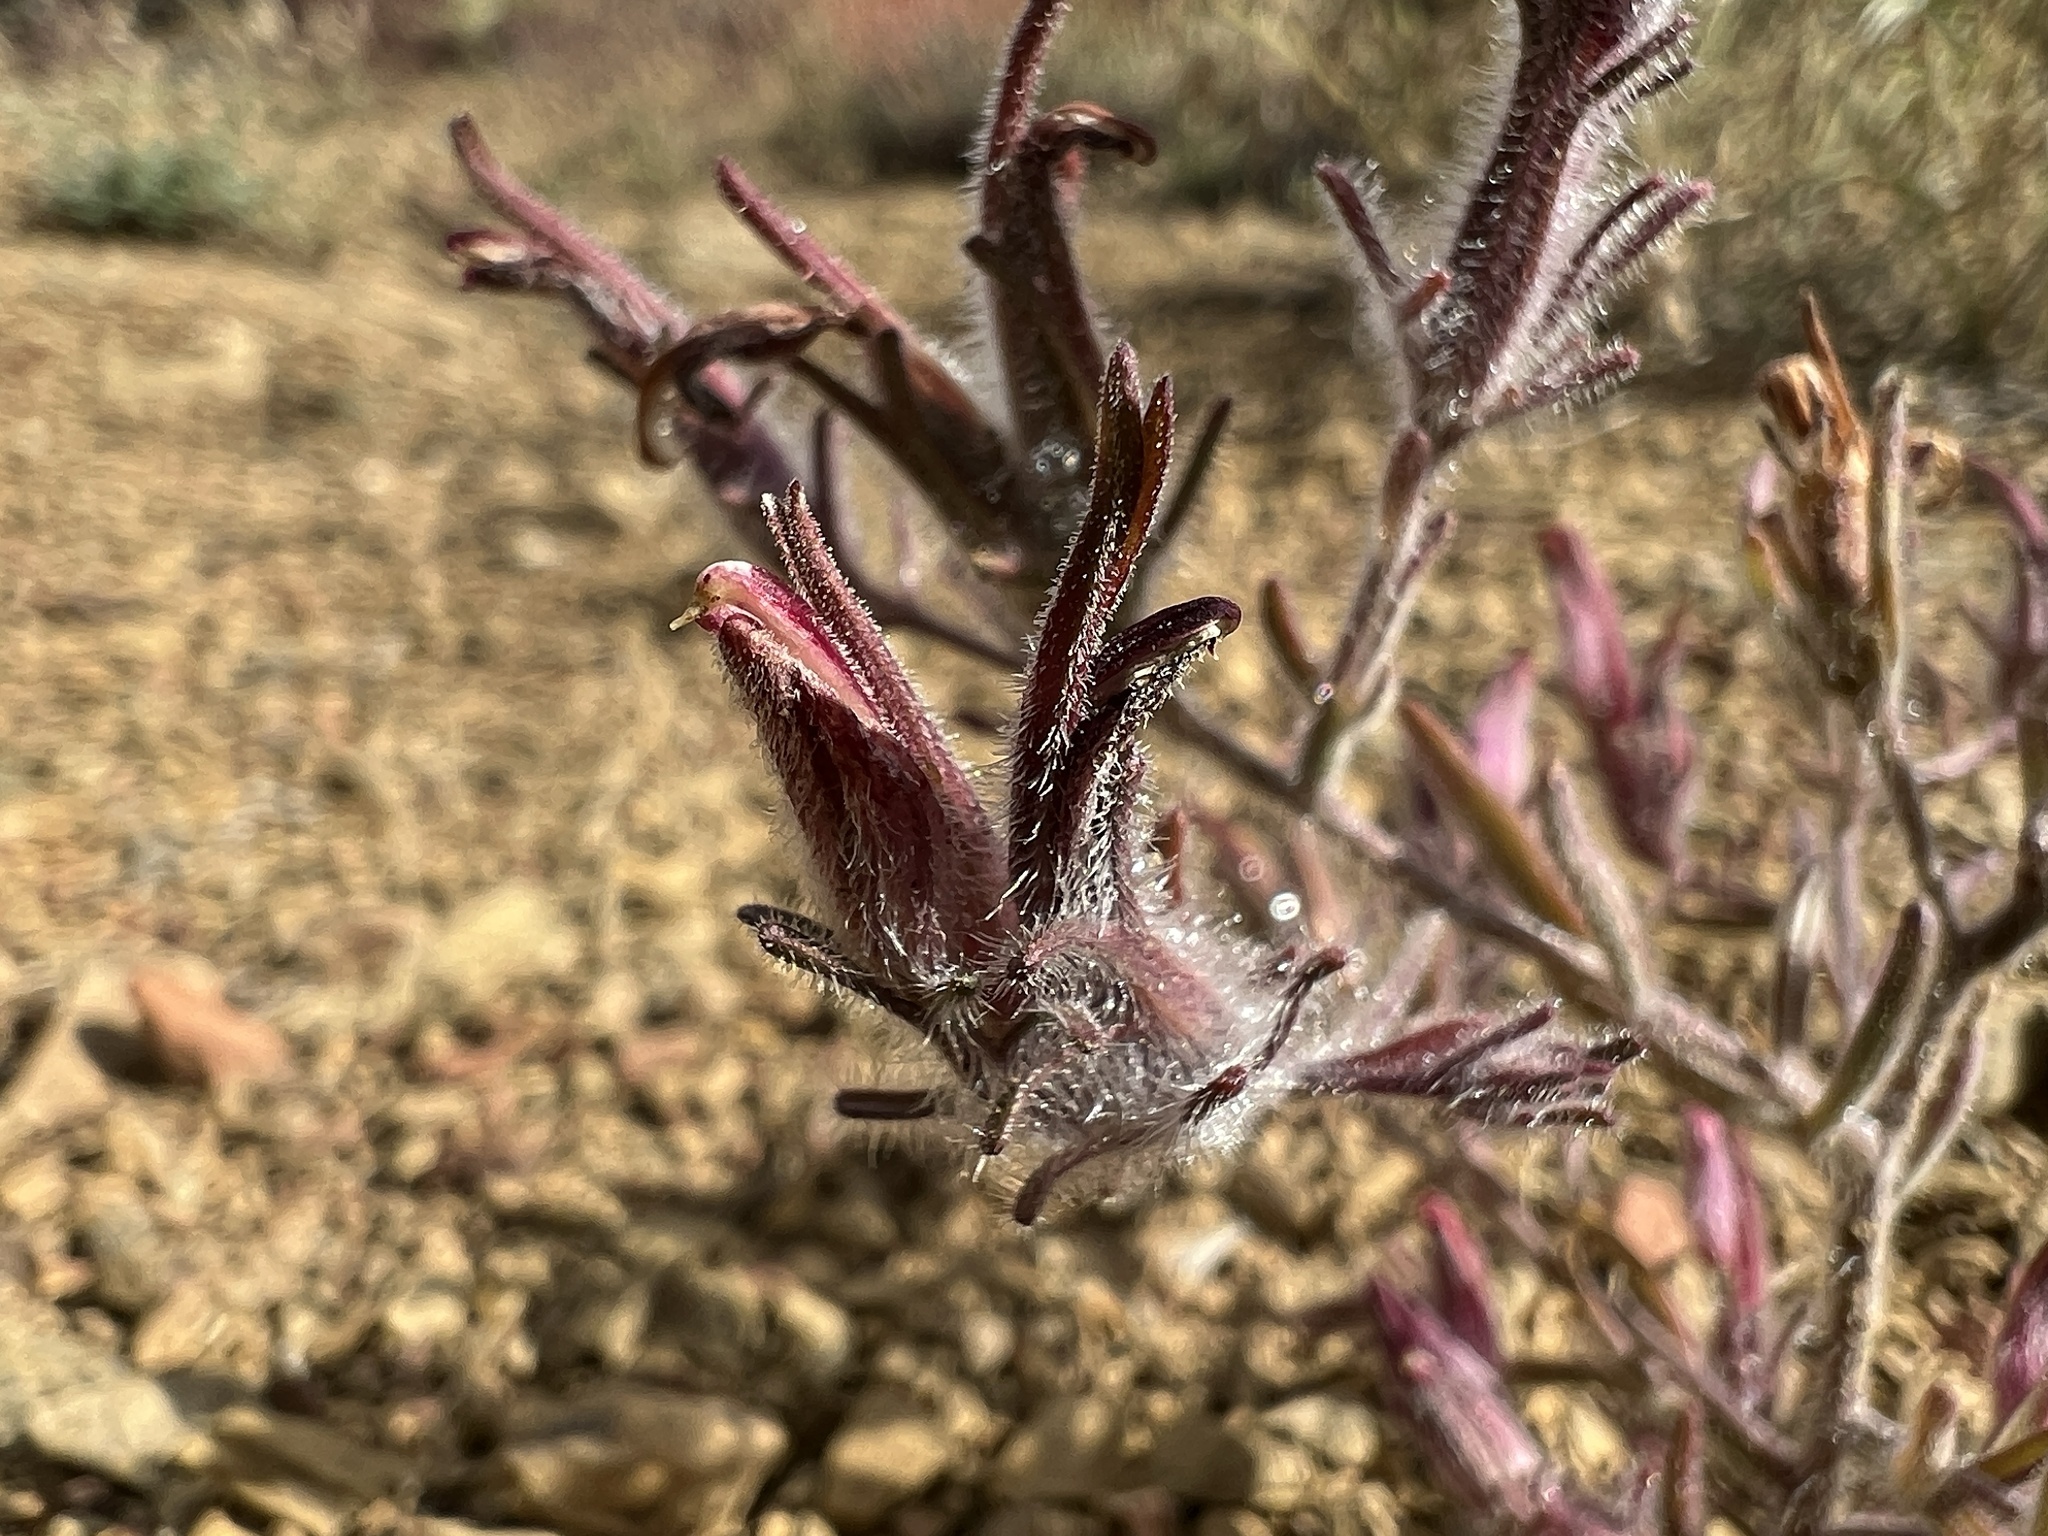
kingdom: Plantae
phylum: Tracheophyta
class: Magnoliopsida
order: Lamiales
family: Orobanchaceae
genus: Cordylanthus
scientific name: Cordylanthus kingii
